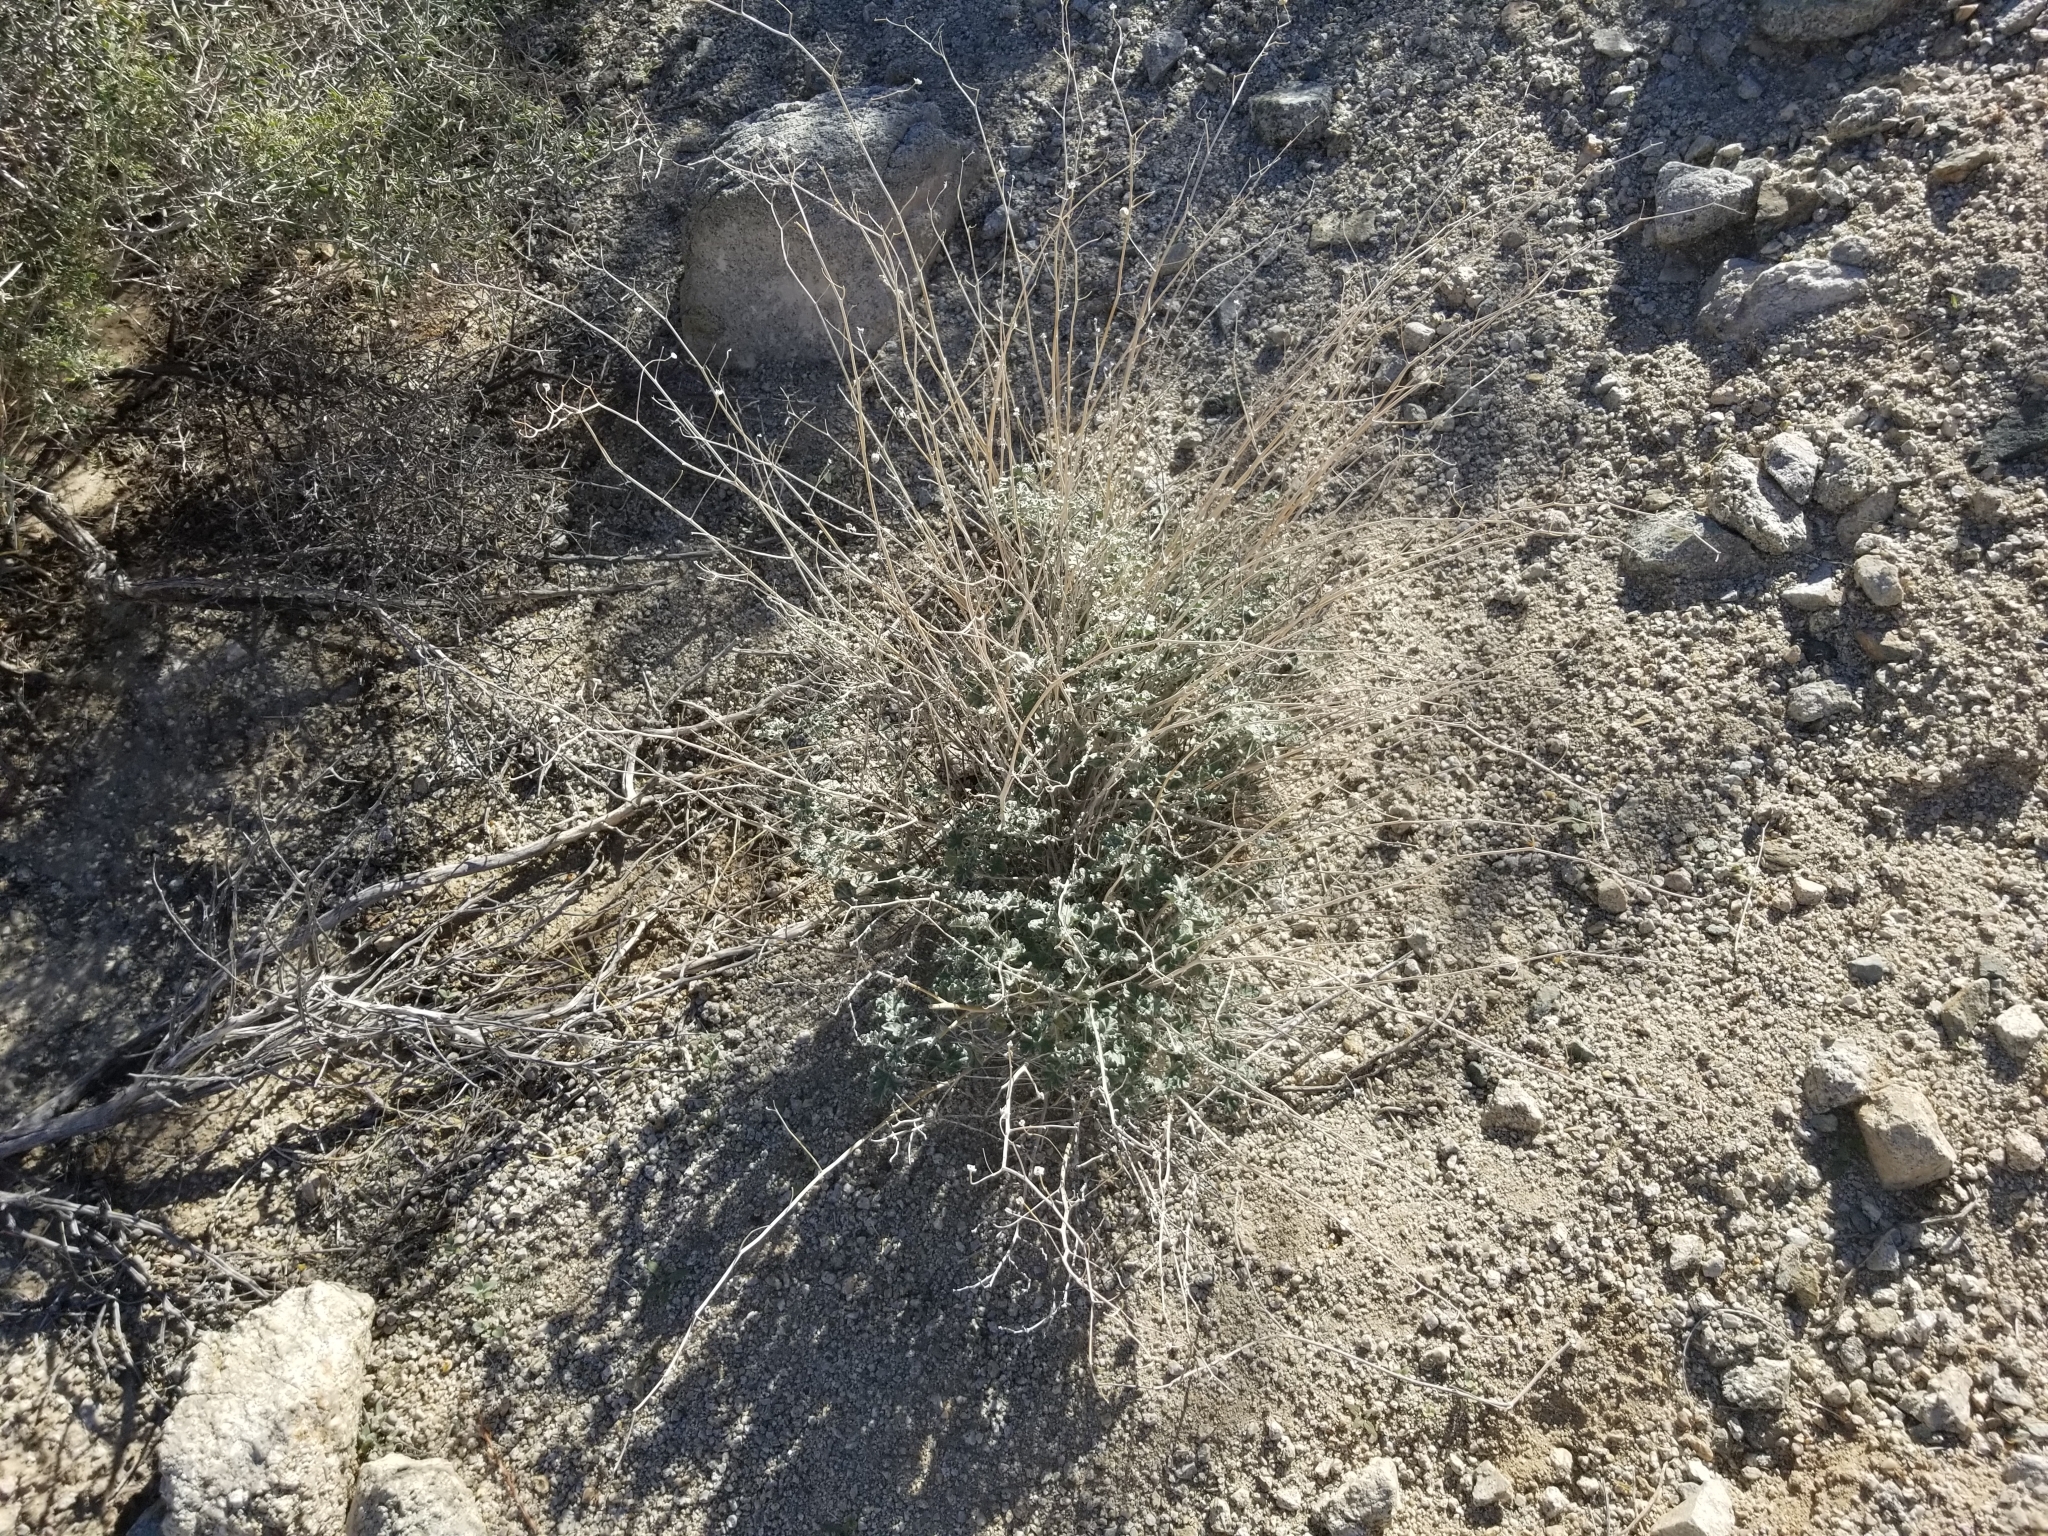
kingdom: Plantae
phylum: Tracheophyta
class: Magnoliopsida
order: Malvales
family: Malvaceae
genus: Sphaeralcea
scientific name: Sphaeralcea ambigua
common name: Apricot globe-mallow
